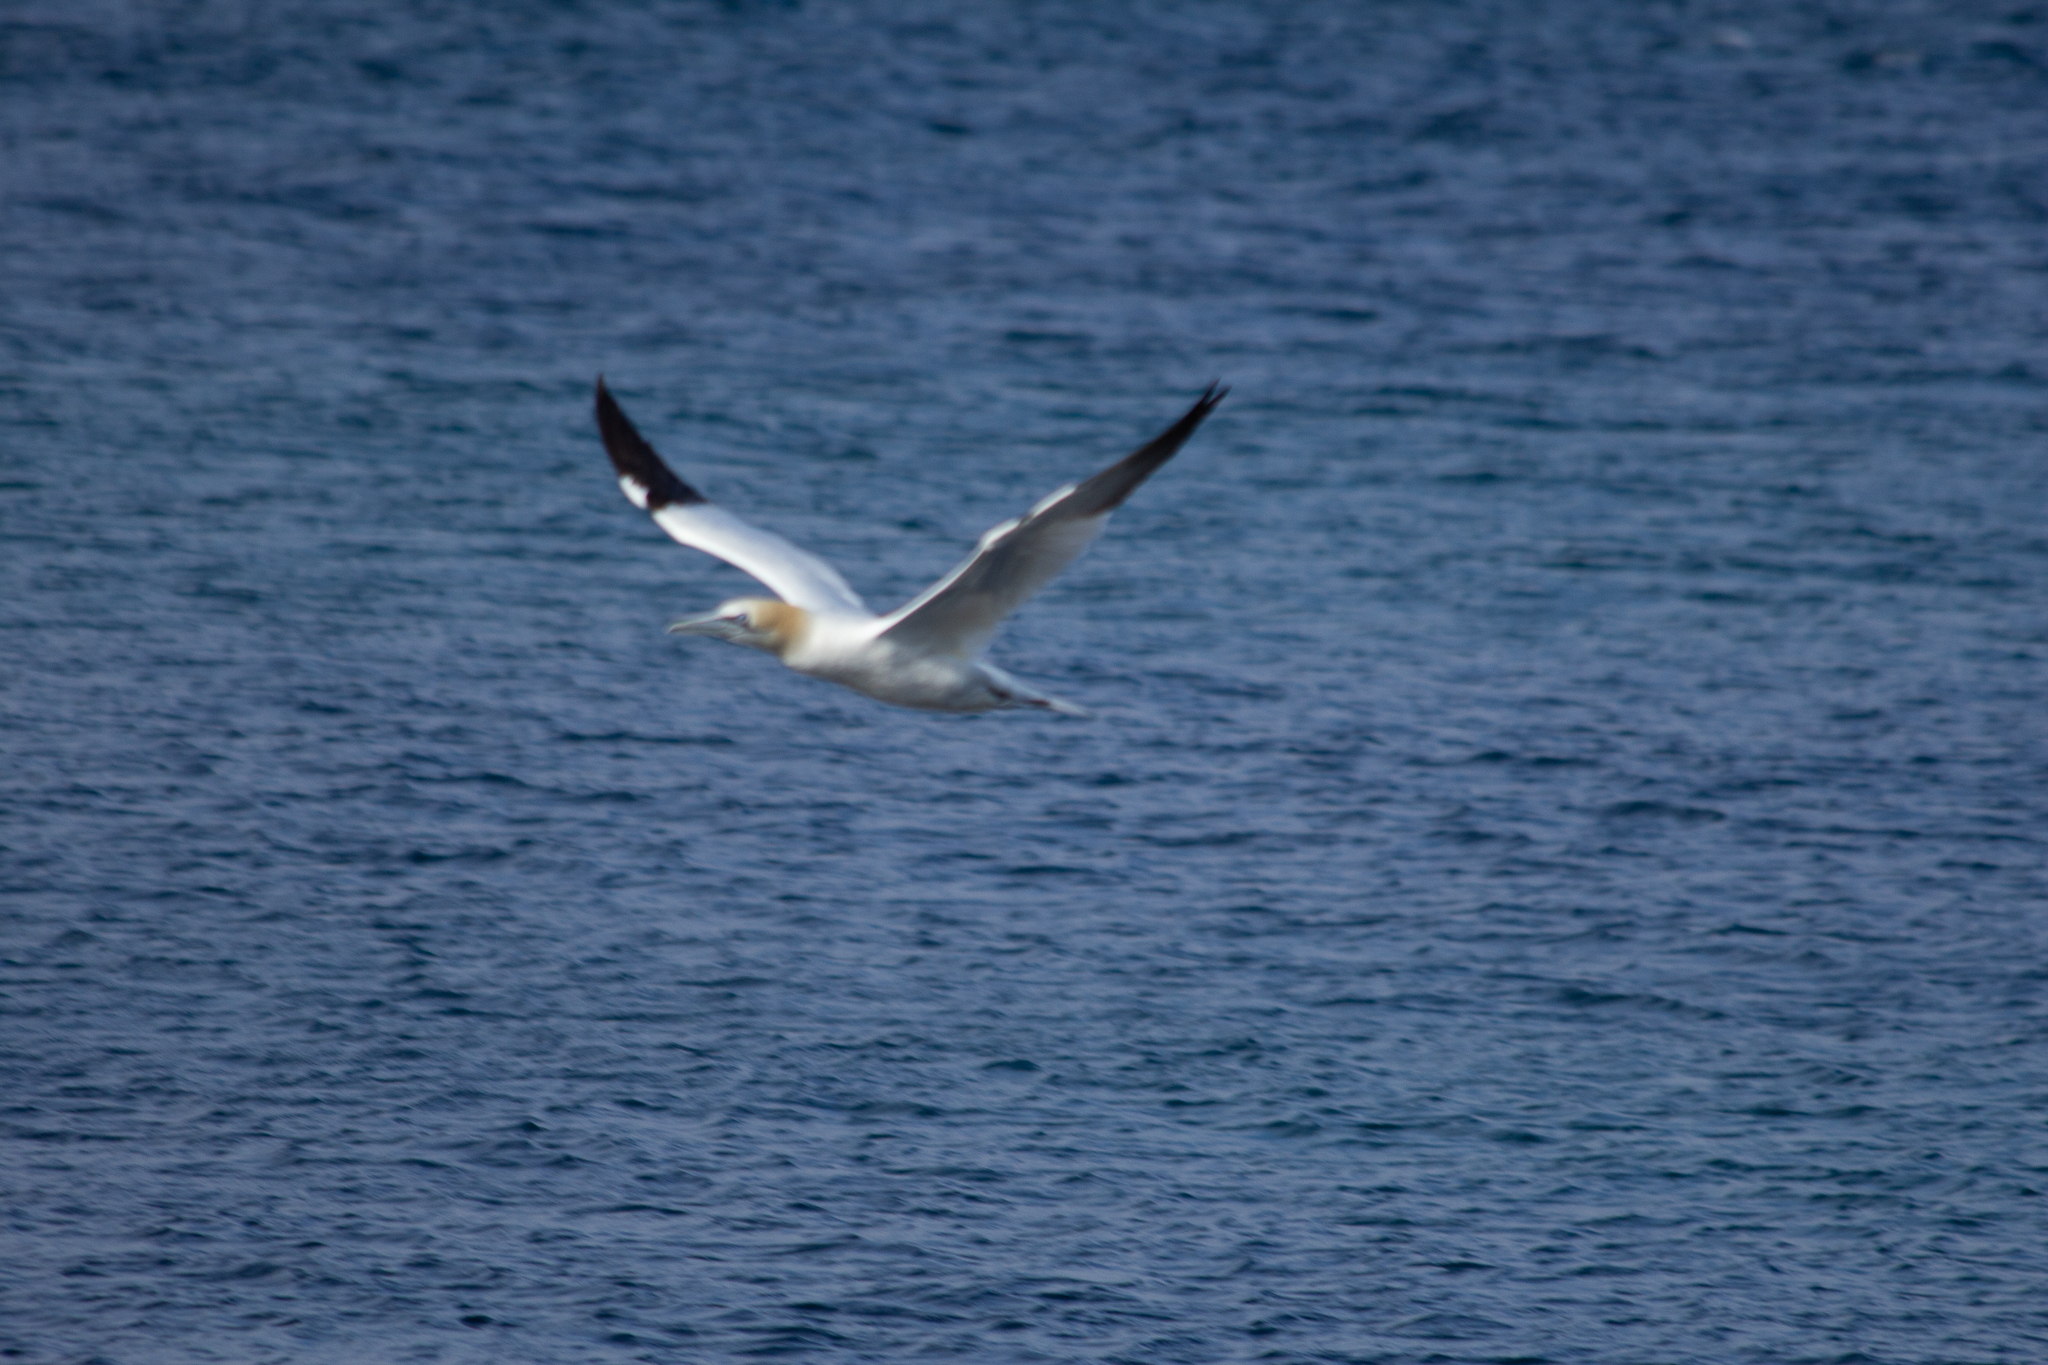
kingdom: Animalia
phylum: Chordata
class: Aves
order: Suliformes
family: Sulidae
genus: Morus
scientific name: Morus bassanus
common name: Northern gannet
